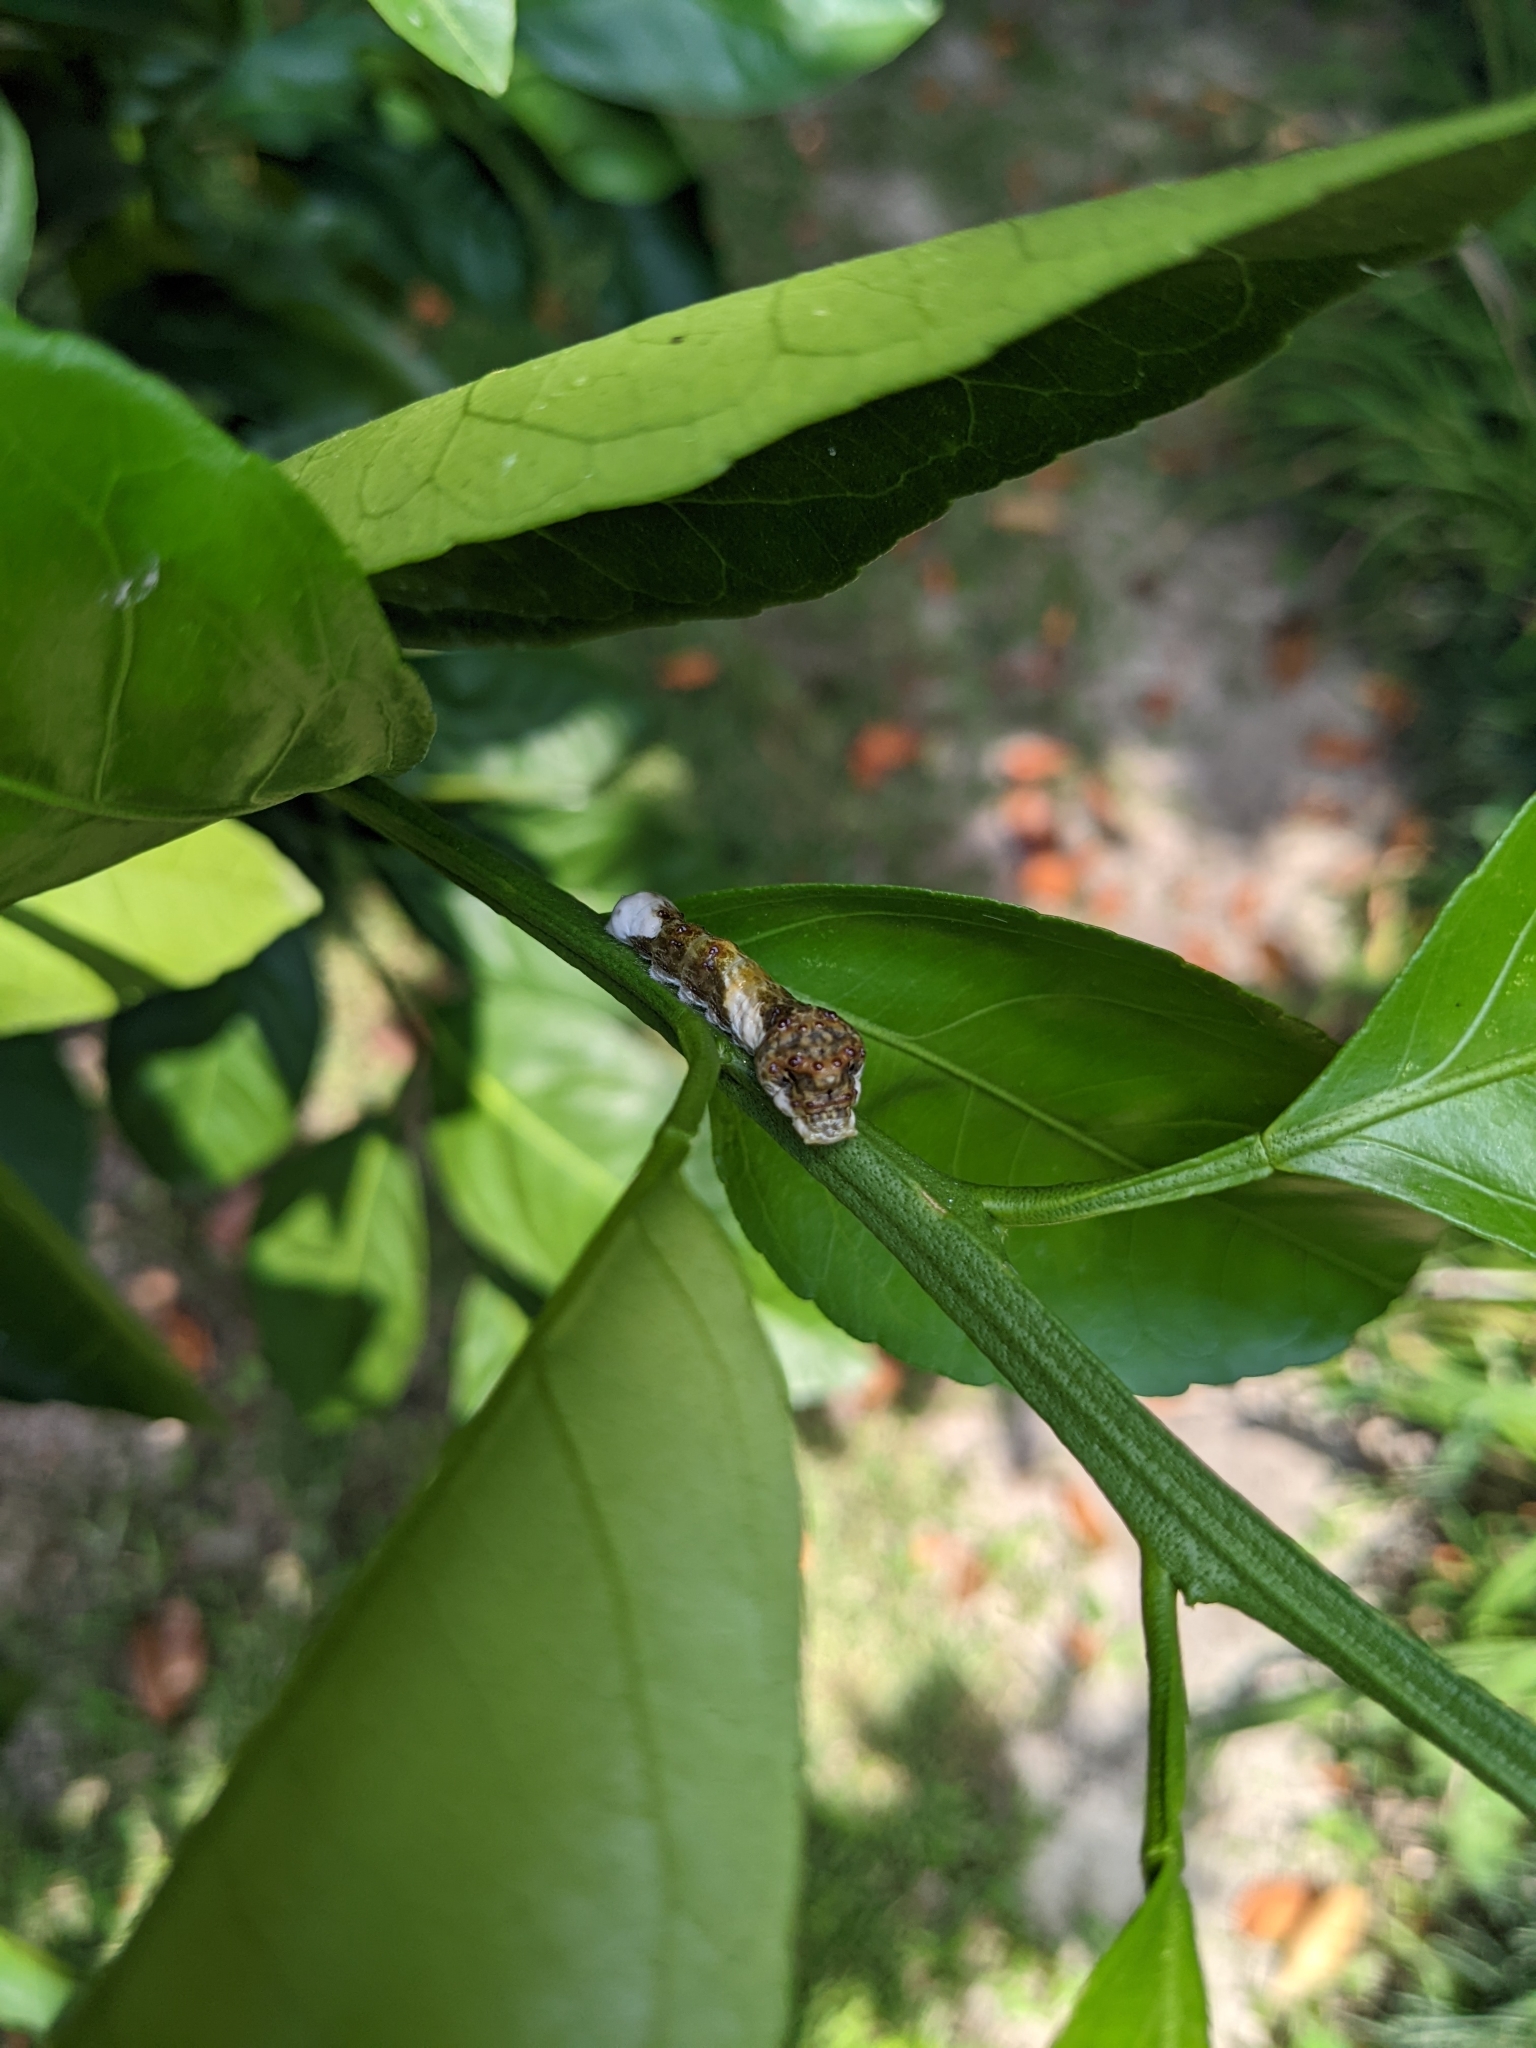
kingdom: Animalia
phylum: Arthropoda
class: Insecta
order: Lepidoptera
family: Papilionidae
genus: Papilio
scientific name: Papilio cresphontes
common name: Giant swallowtail
